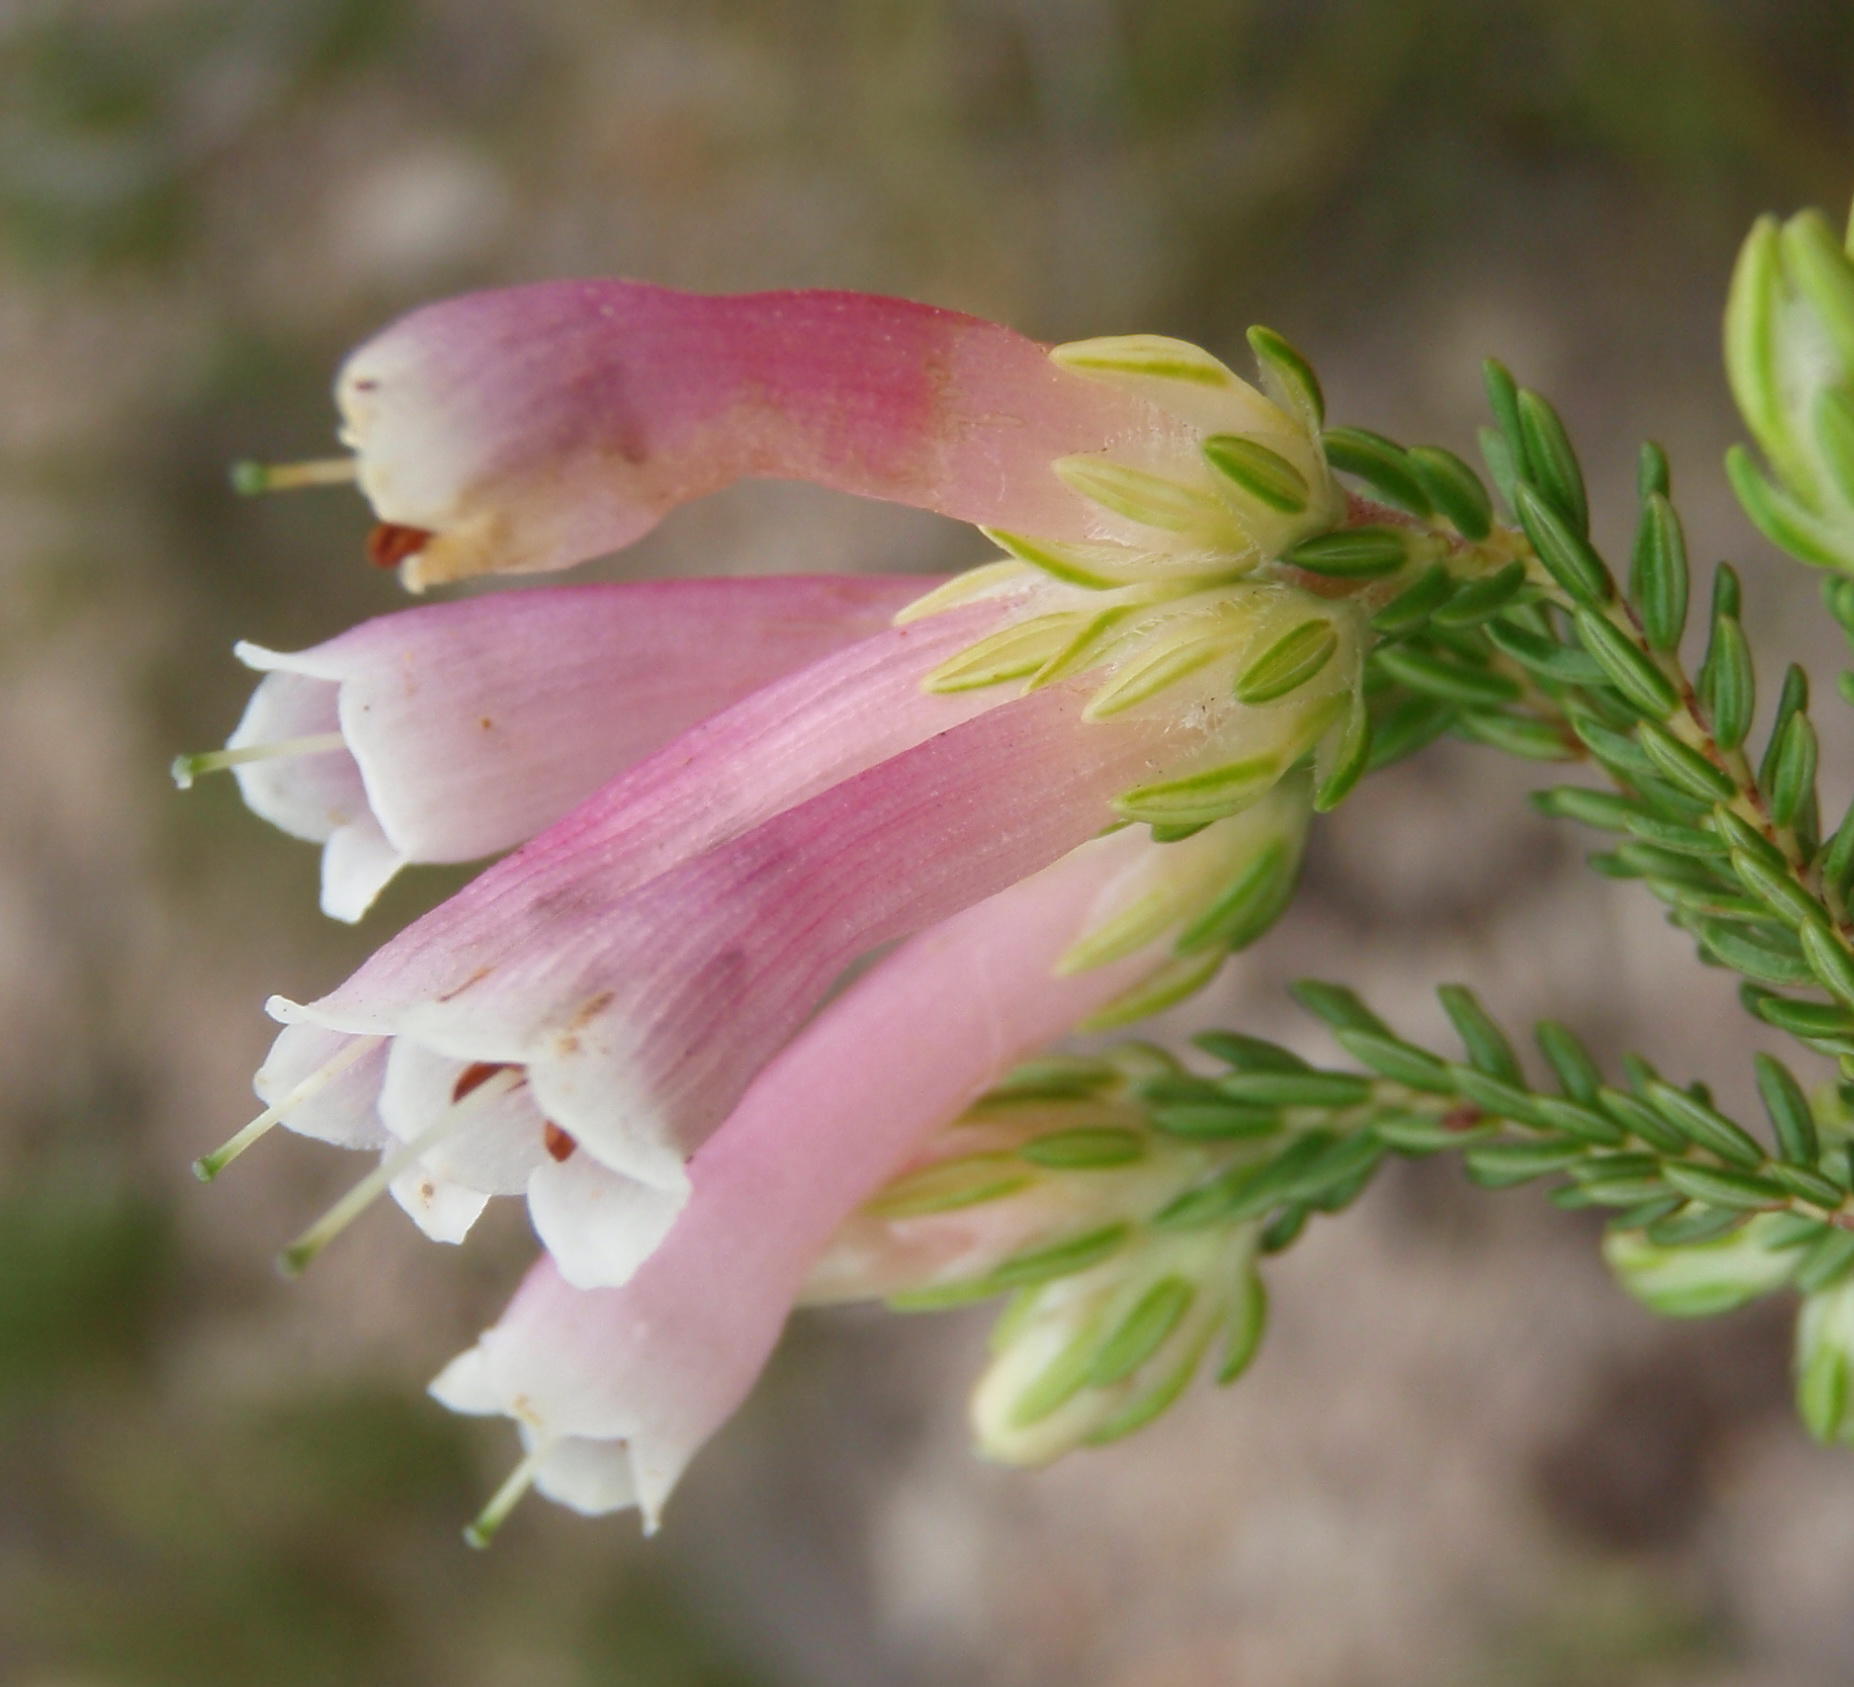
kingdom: Plantae
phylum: Tracheophyta
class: Magnoliopsida
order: Ericales
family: Ericaceae
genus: Erica
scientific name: Erica diaphana
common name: Heath
